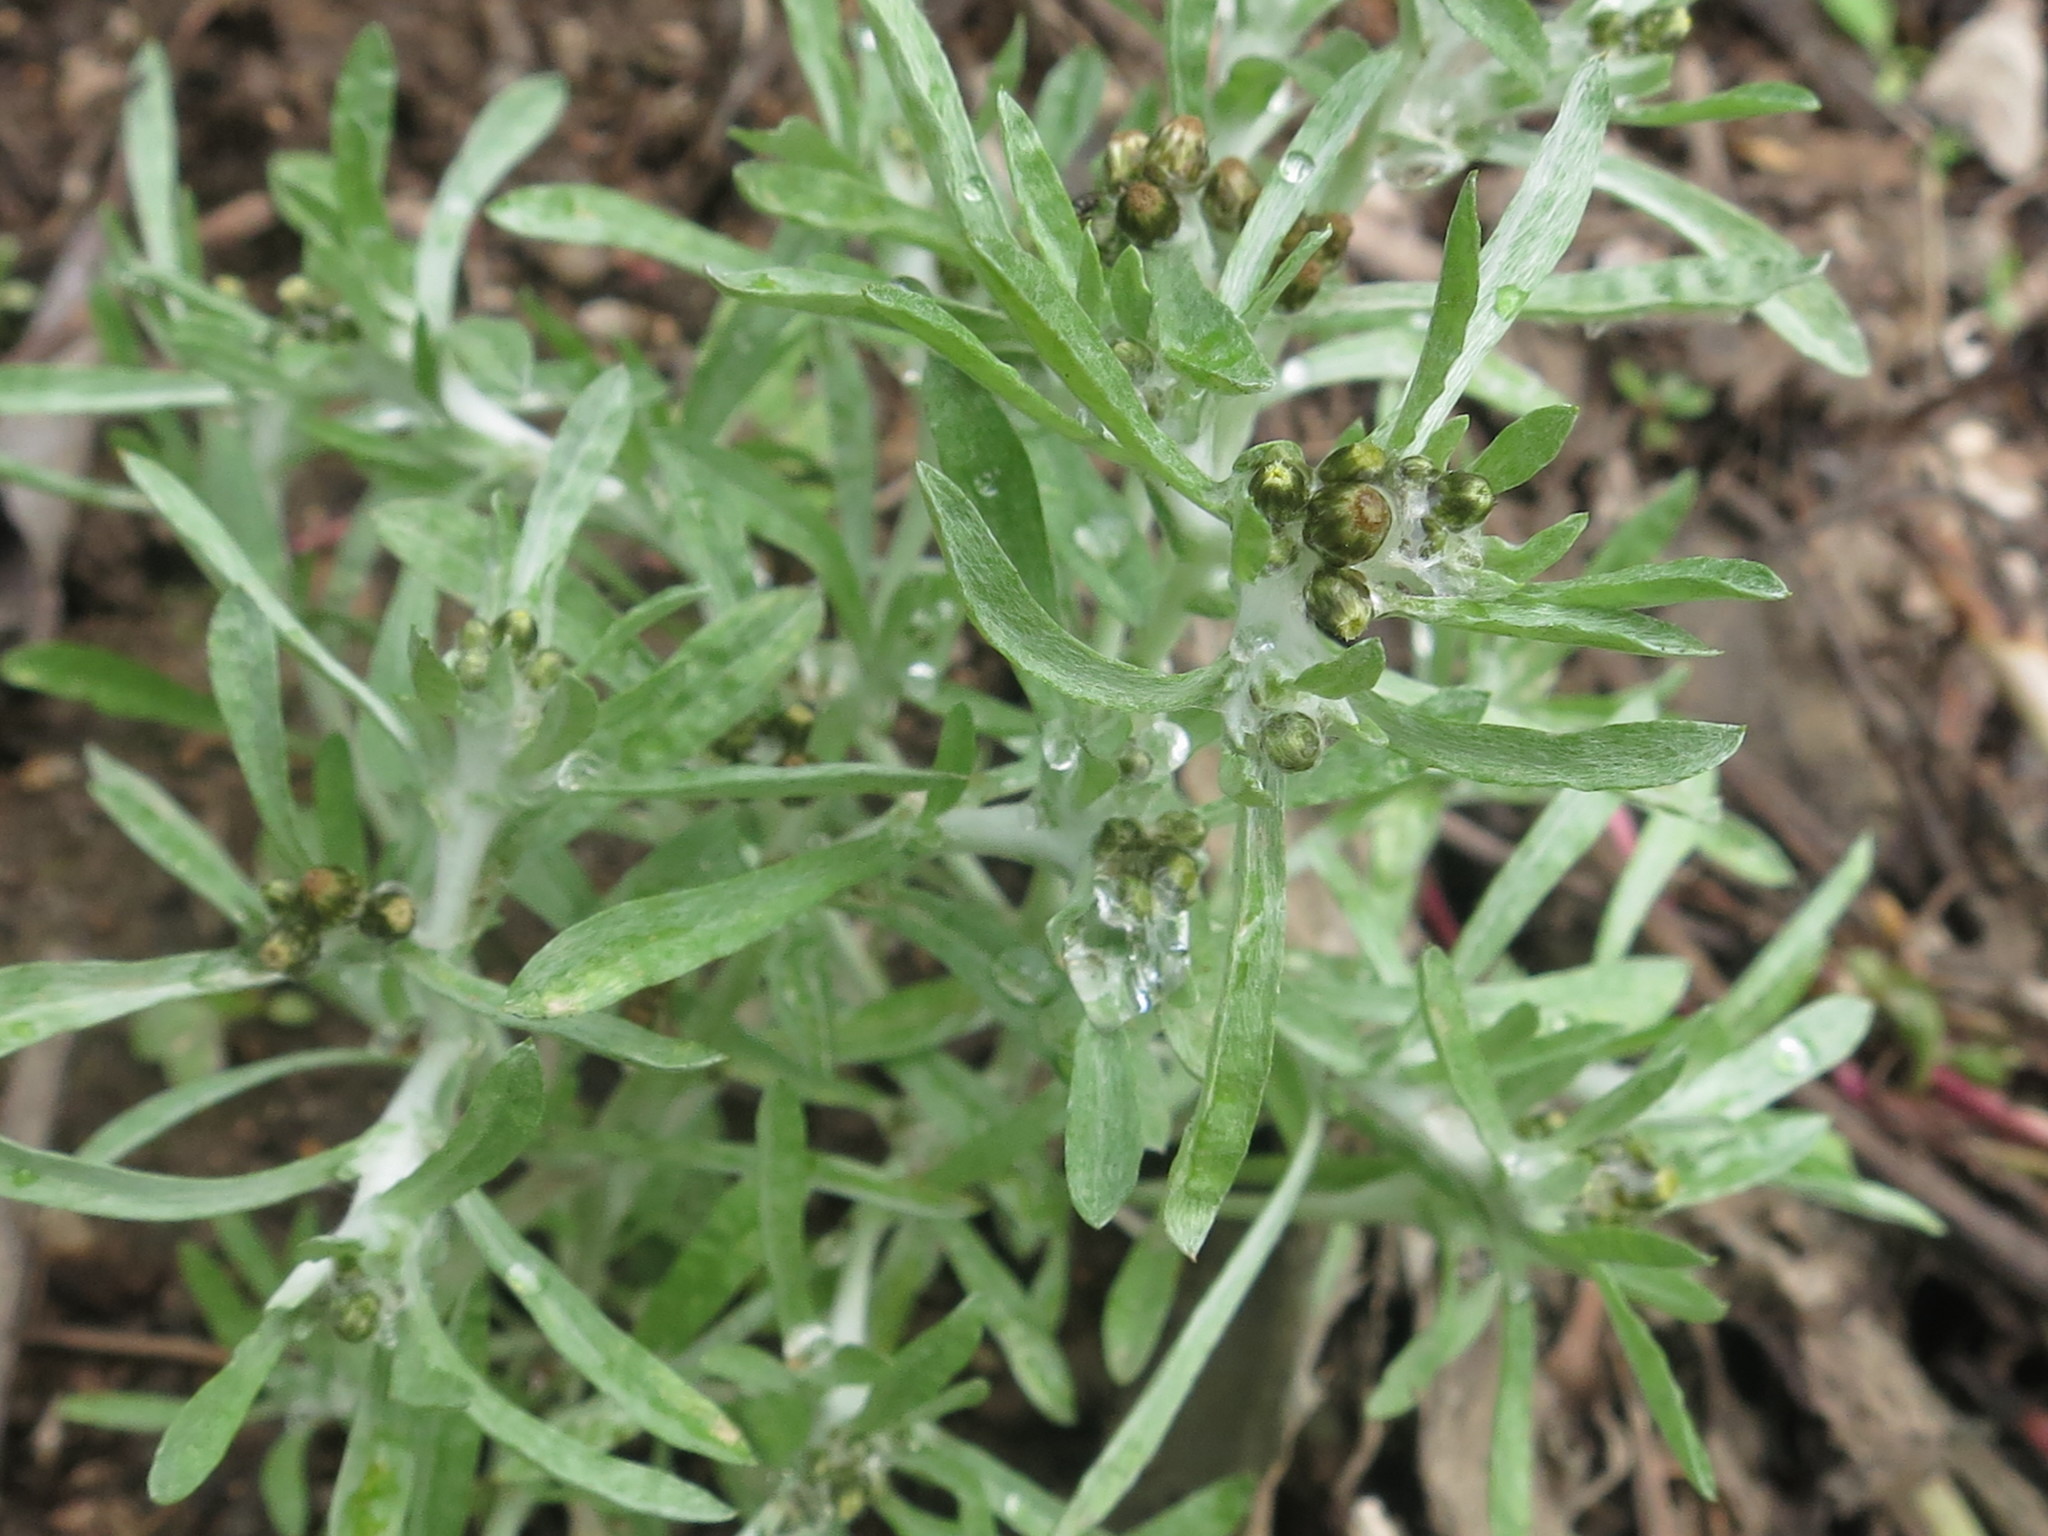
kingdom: Plantae
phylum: Tracheophyta
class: Magnoliopsida
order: Asterales
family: Asteraceae
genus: Gnaphalium
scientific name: Gnaphalium uliginosum
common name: Marsh cudweed
